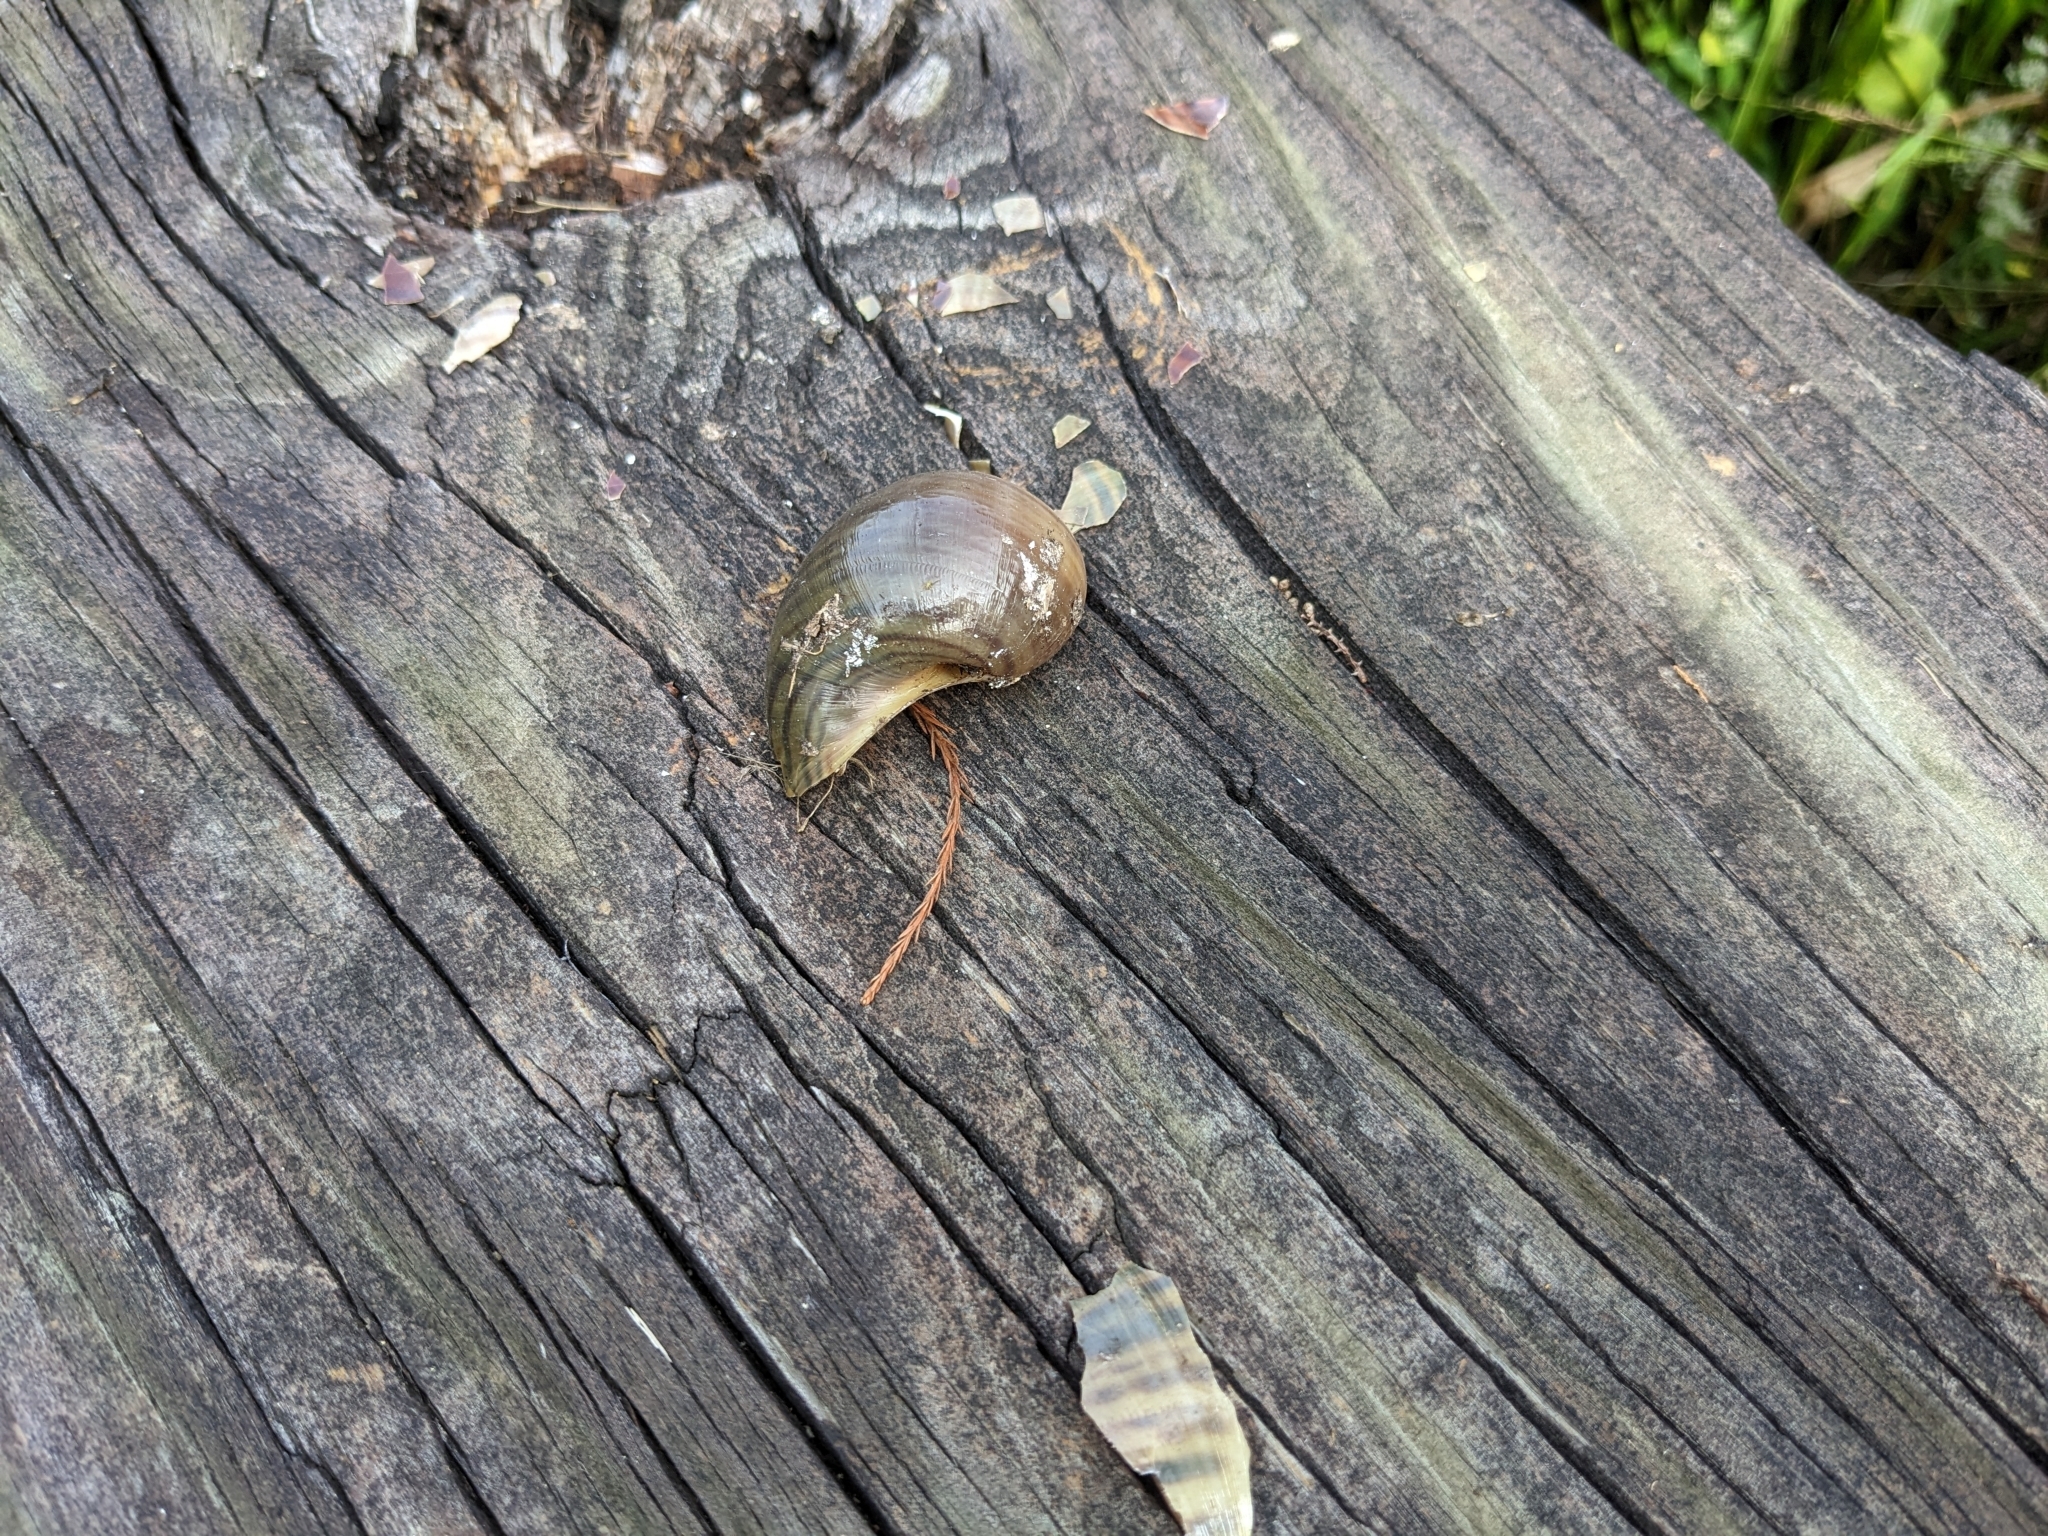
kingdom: Animalia
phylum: Mollusca
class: Gastropoda
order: Architaenioglossa
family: Ampullariidae
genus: Pomacea
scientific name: Pomacea maculata
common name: Giant applesnail
